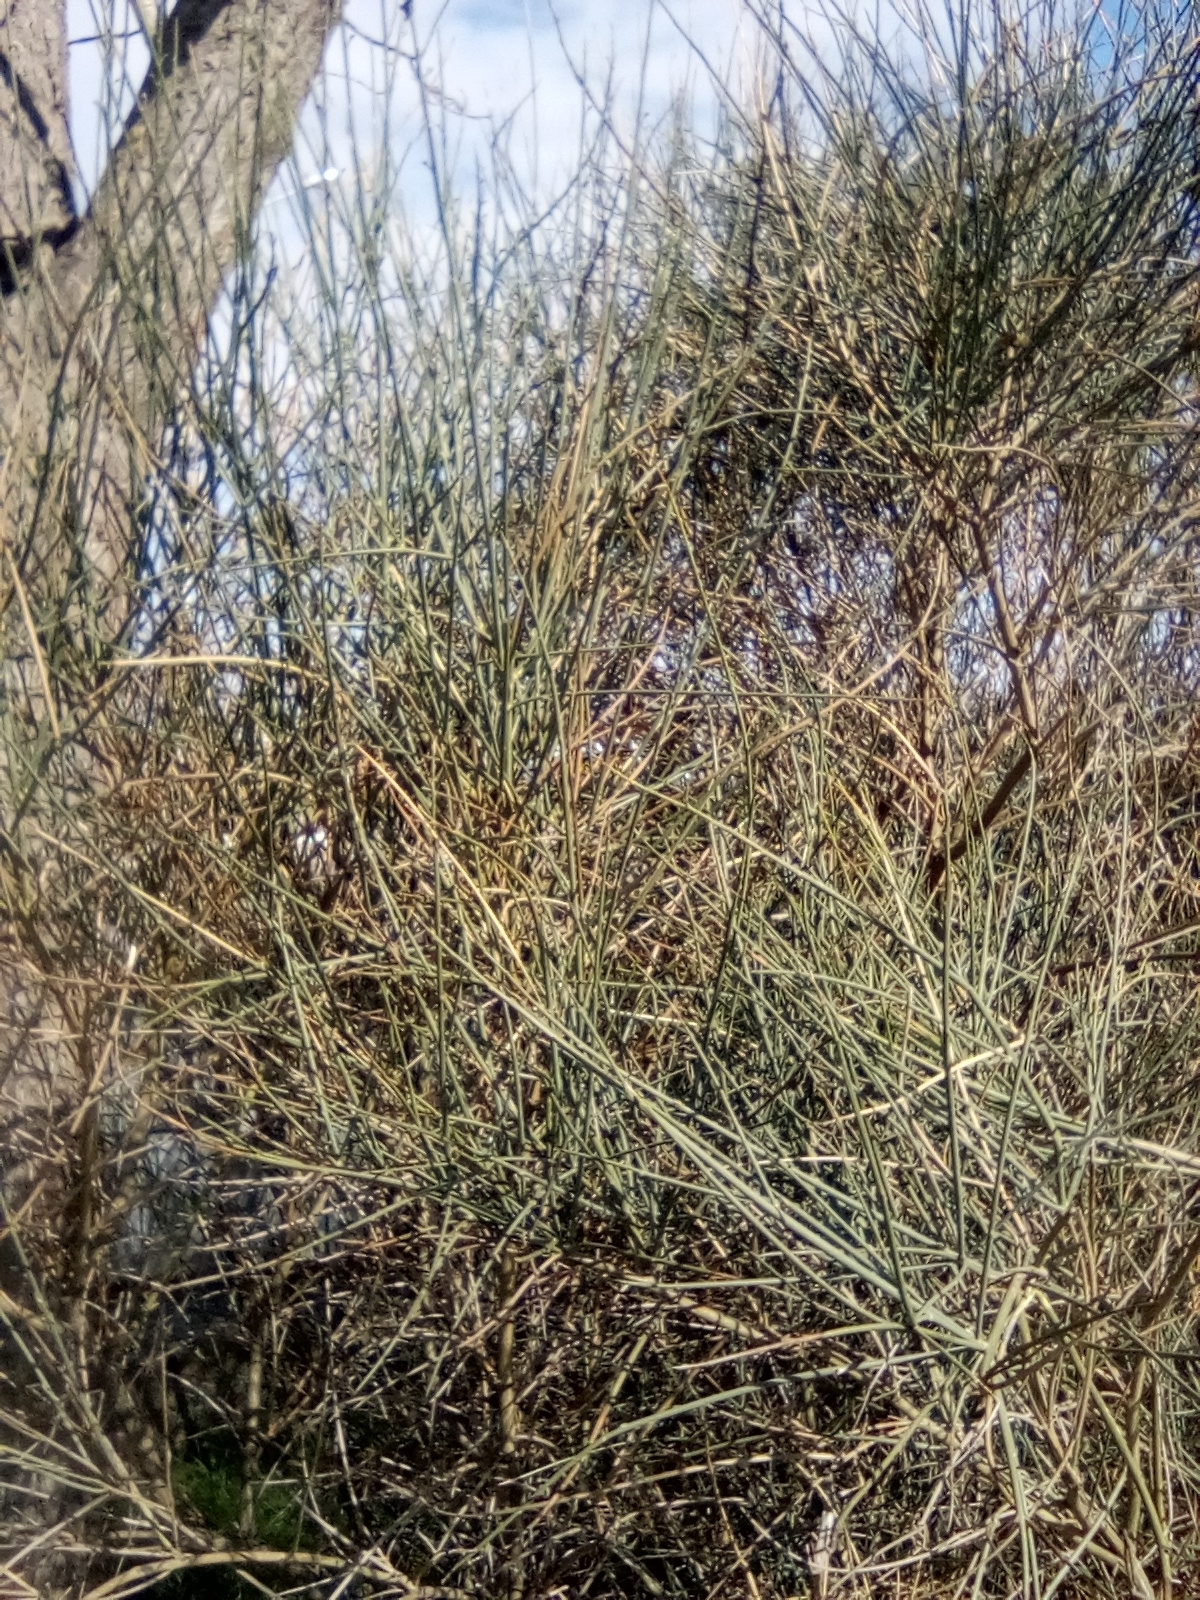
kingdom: Plantae
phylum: Tracheophyta
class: Magnoliopsida
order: Fabales
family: Fabaceae
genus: Spartium
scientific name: Spartium junceum
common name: Spanish broom
